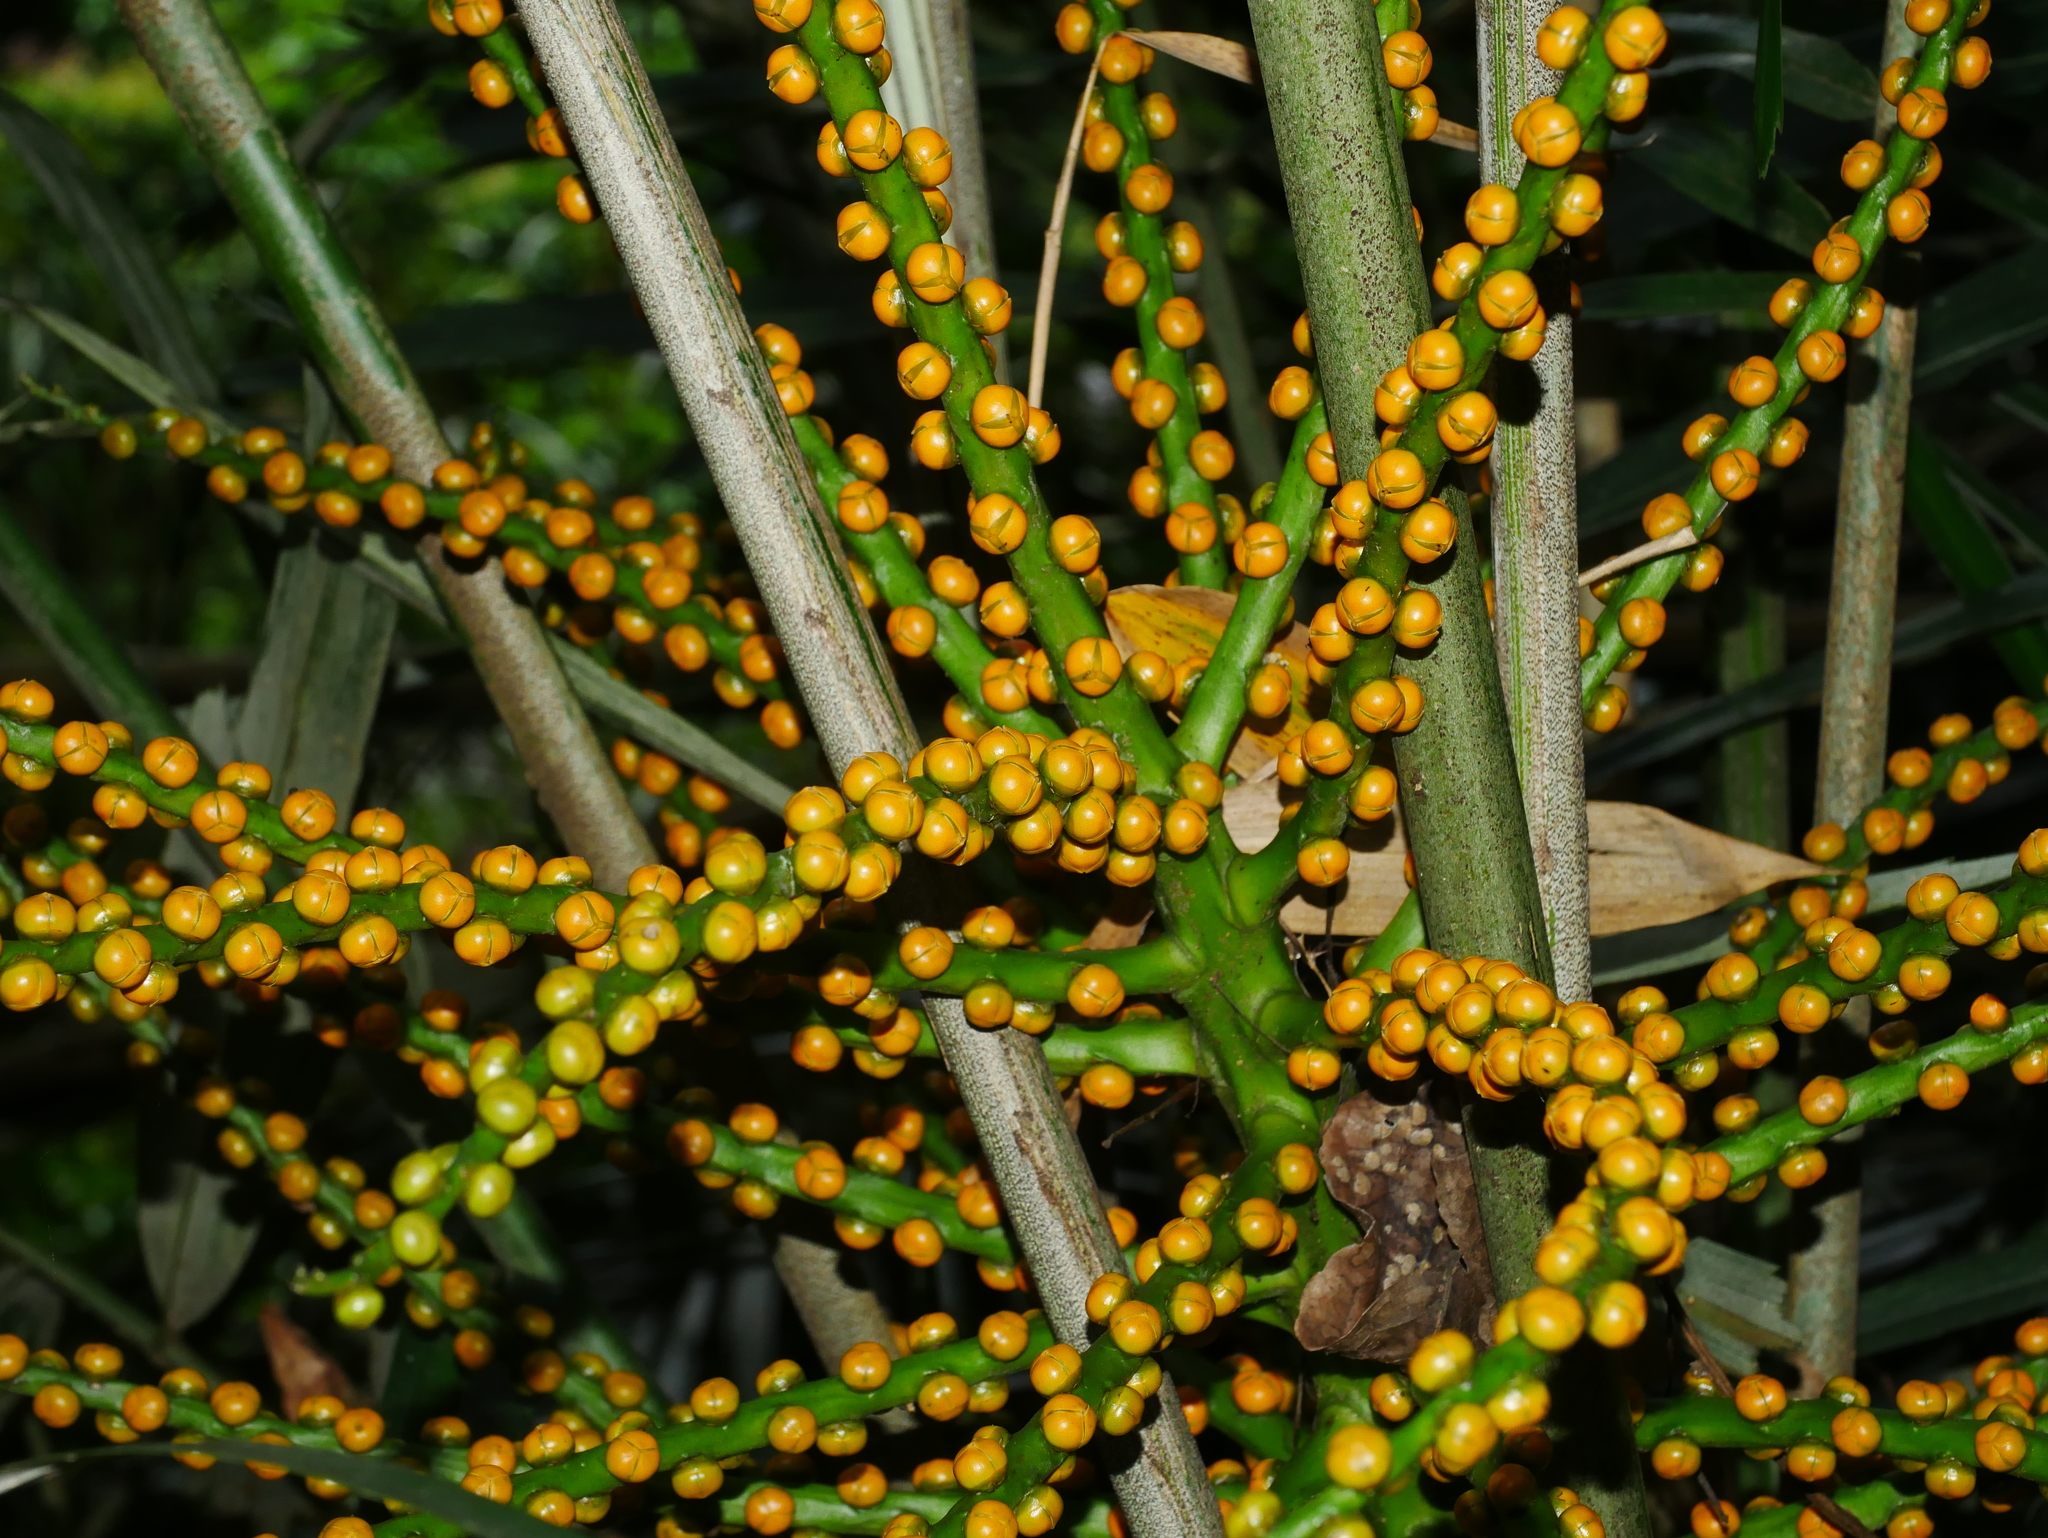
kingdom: Plantae
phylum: Tracheophyta
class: Liliopsida
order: Arecales
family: Arecaceae
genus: Arenga
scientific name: Arenga engleri
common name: Formosan sugar palm
